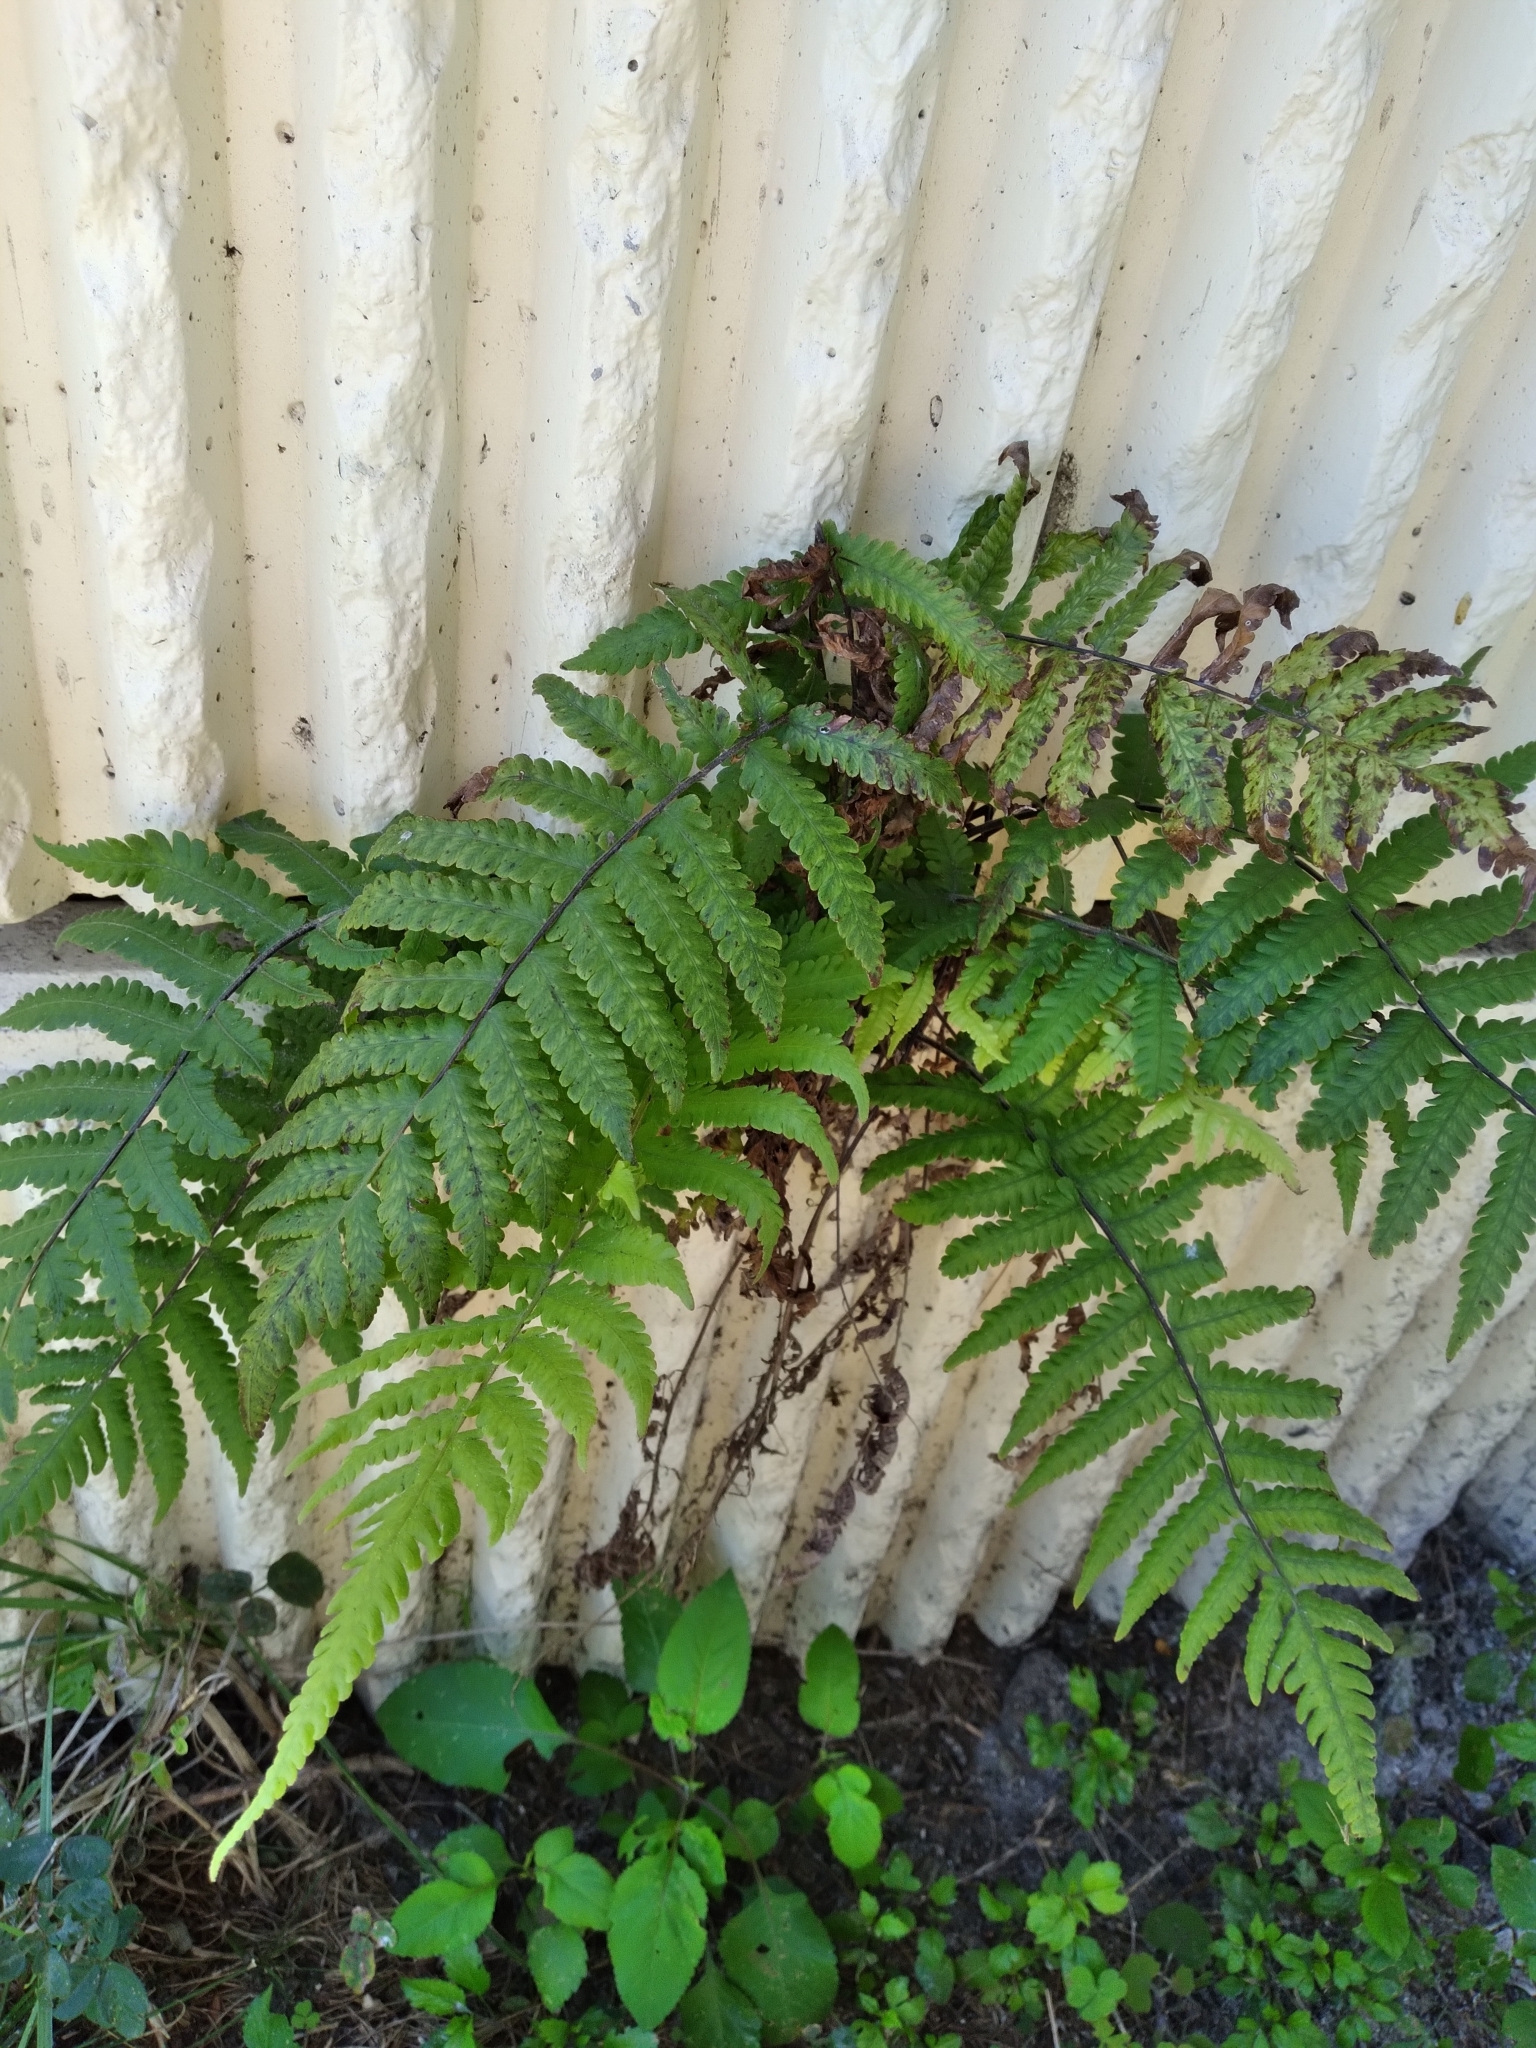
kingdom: Plantae
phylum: Tracheophyta
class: Polypodiopsida
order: Polypodiales
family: Thelypteridaceae
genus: Christella
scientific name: Christella dentata
